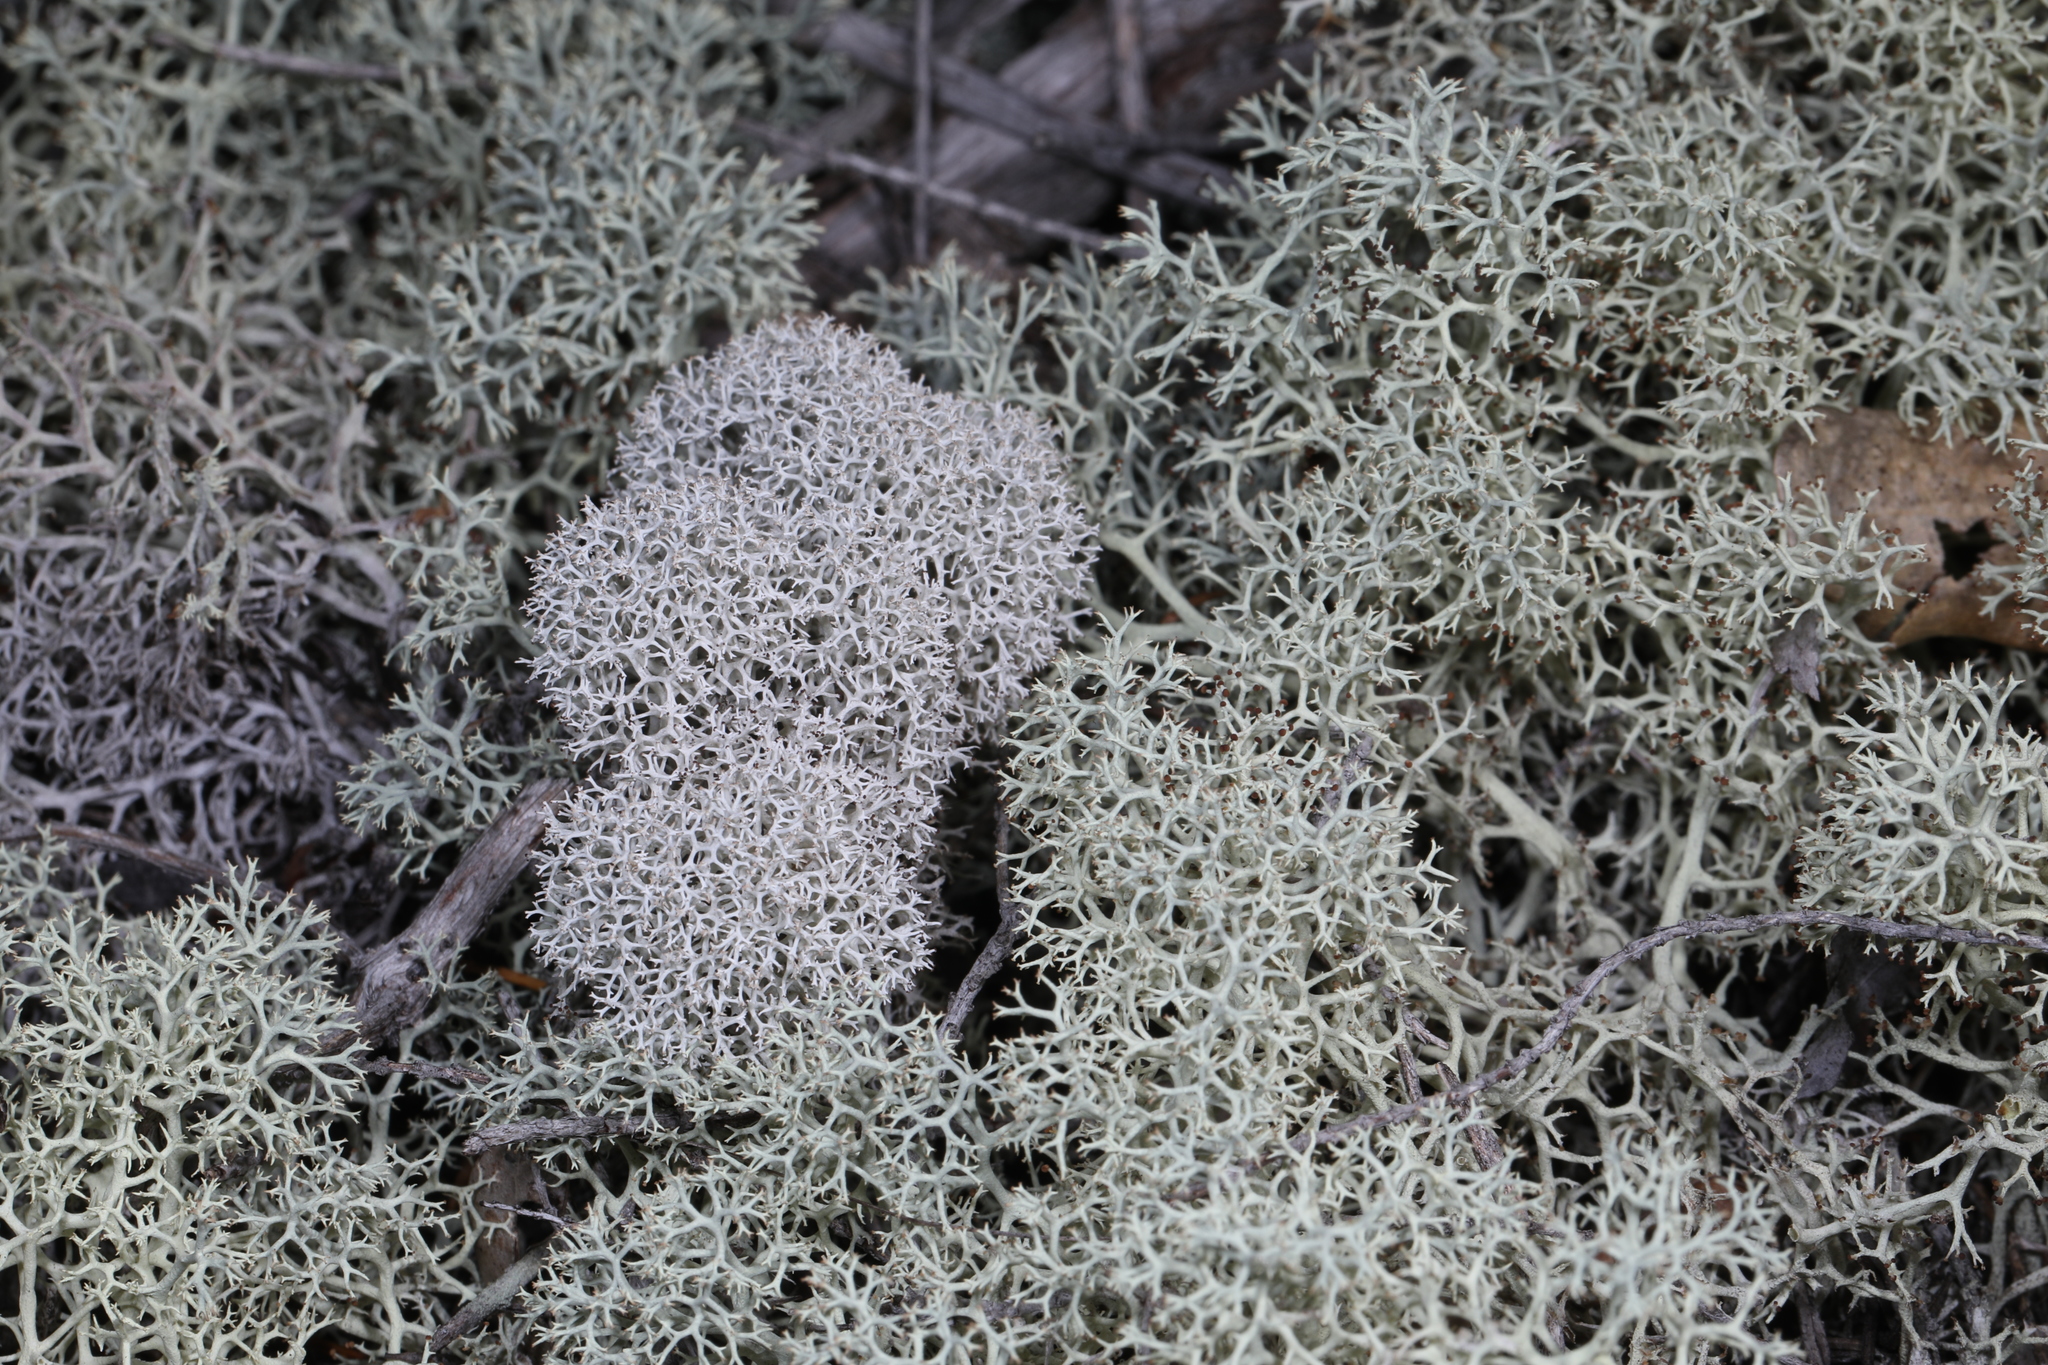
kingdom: Fungi
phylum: Ascomycota
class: Lecanoromycetes
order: Lecanorales
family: Cladoniaceae
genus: Cladonia
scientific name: Cladonia evansii
